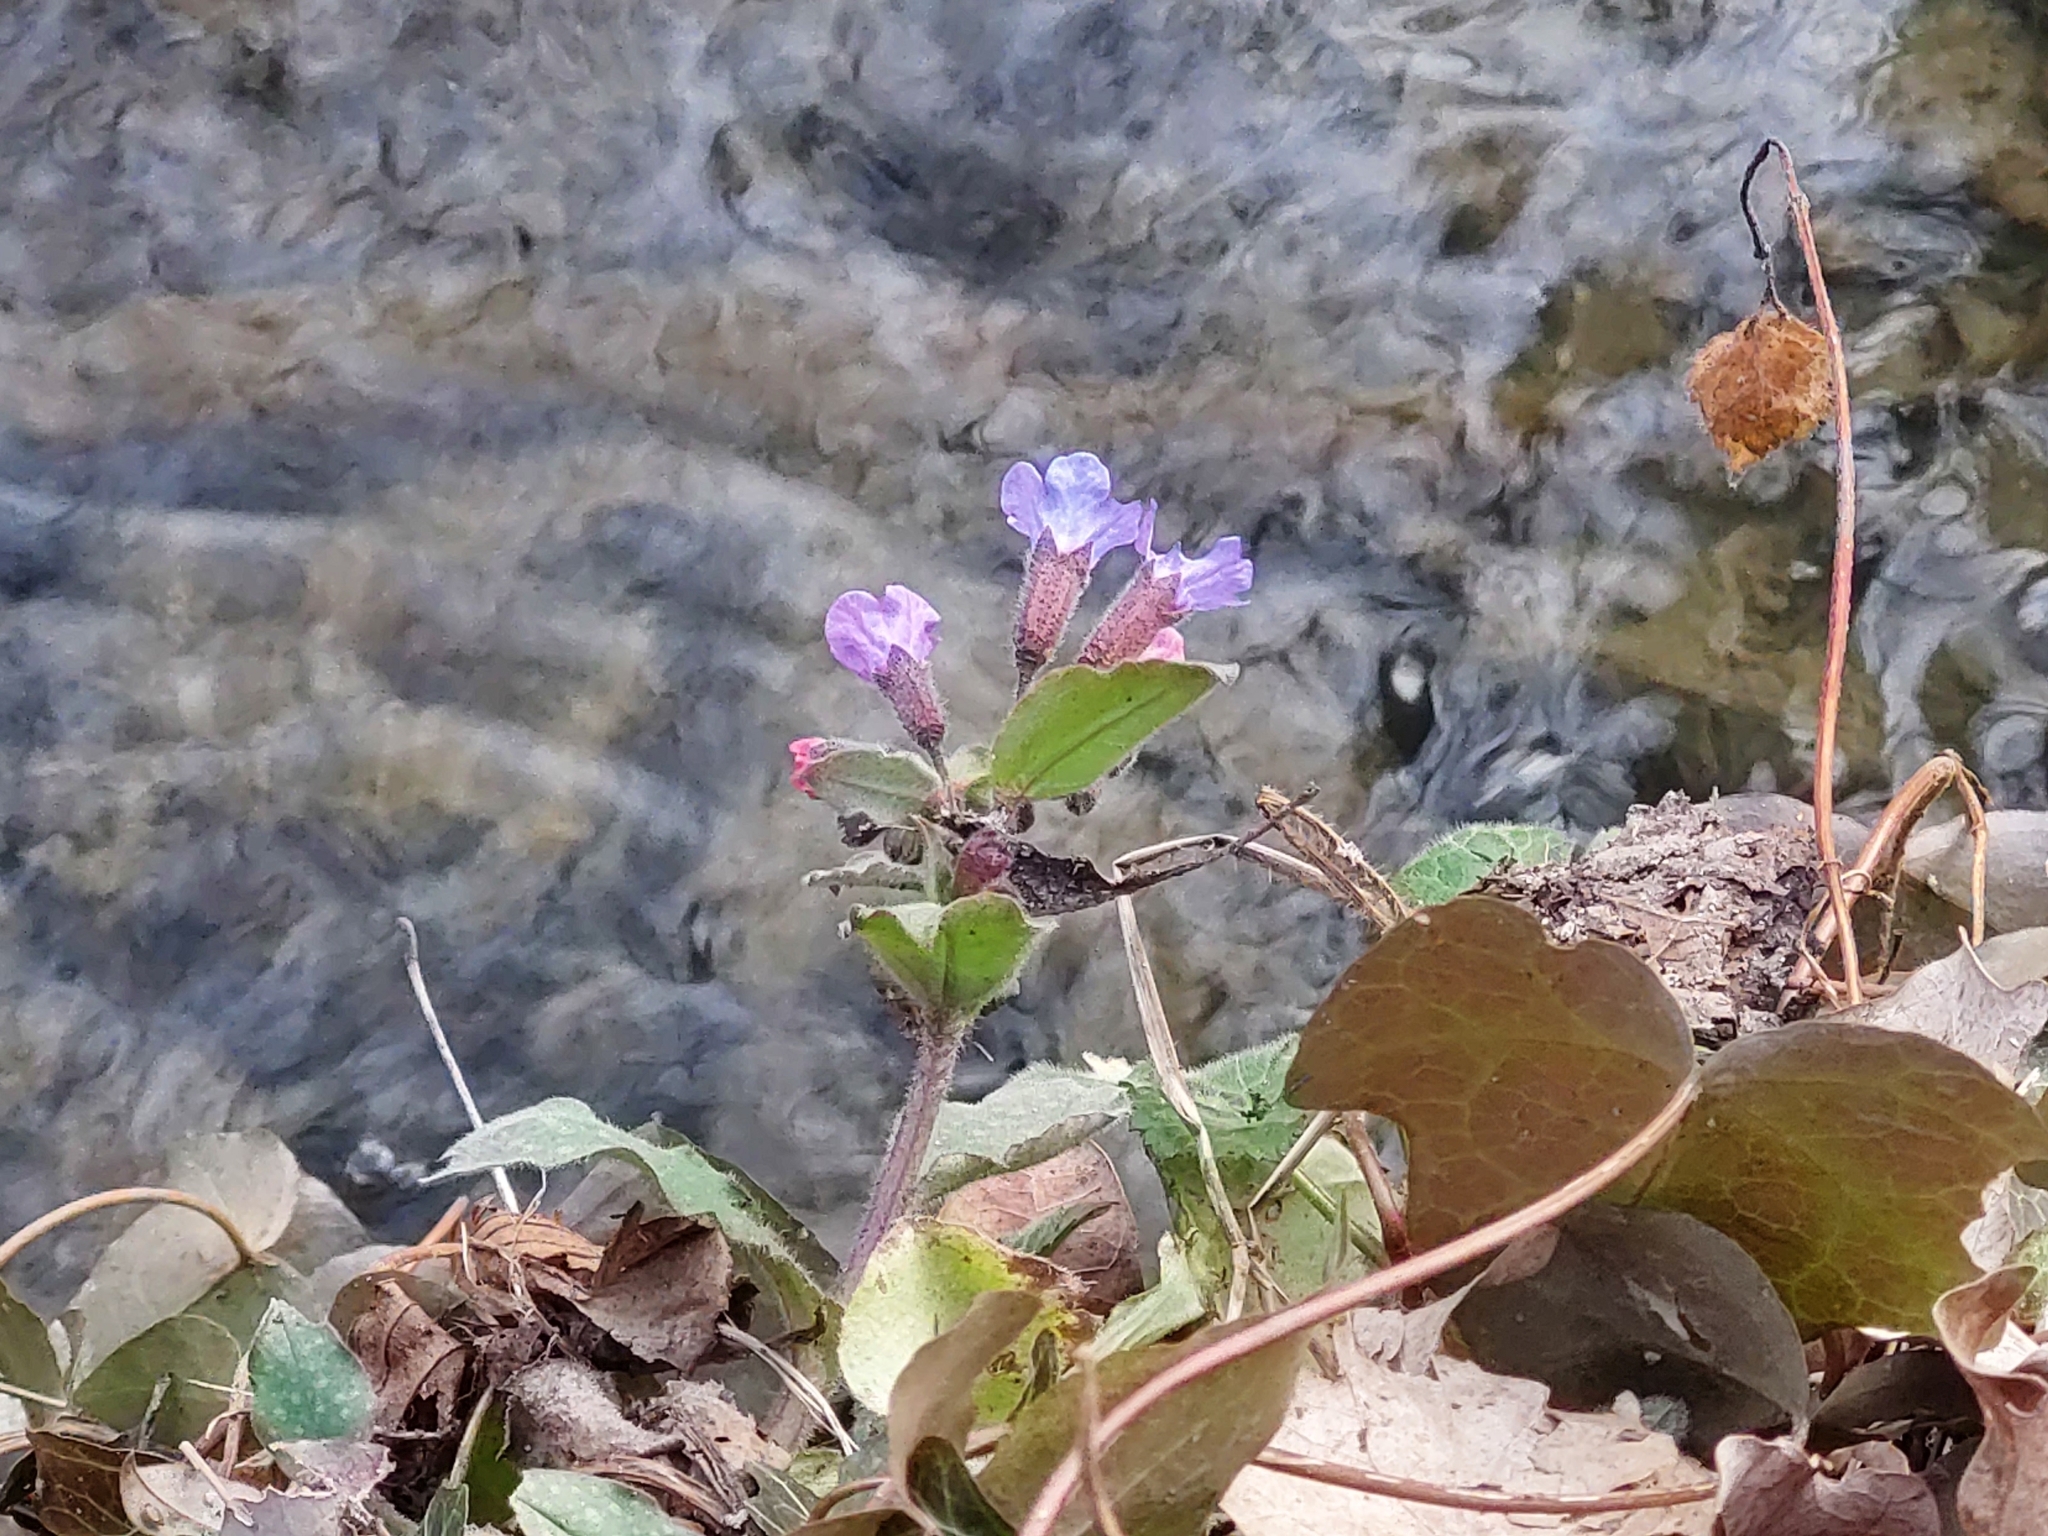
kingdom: Plantae
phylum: Tracheophyta
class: Magnoliopsida
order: Boraginales
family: Boraginaceae
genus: Pulmonaria
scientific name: Pulmonaria officinalis
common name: Lungwort
